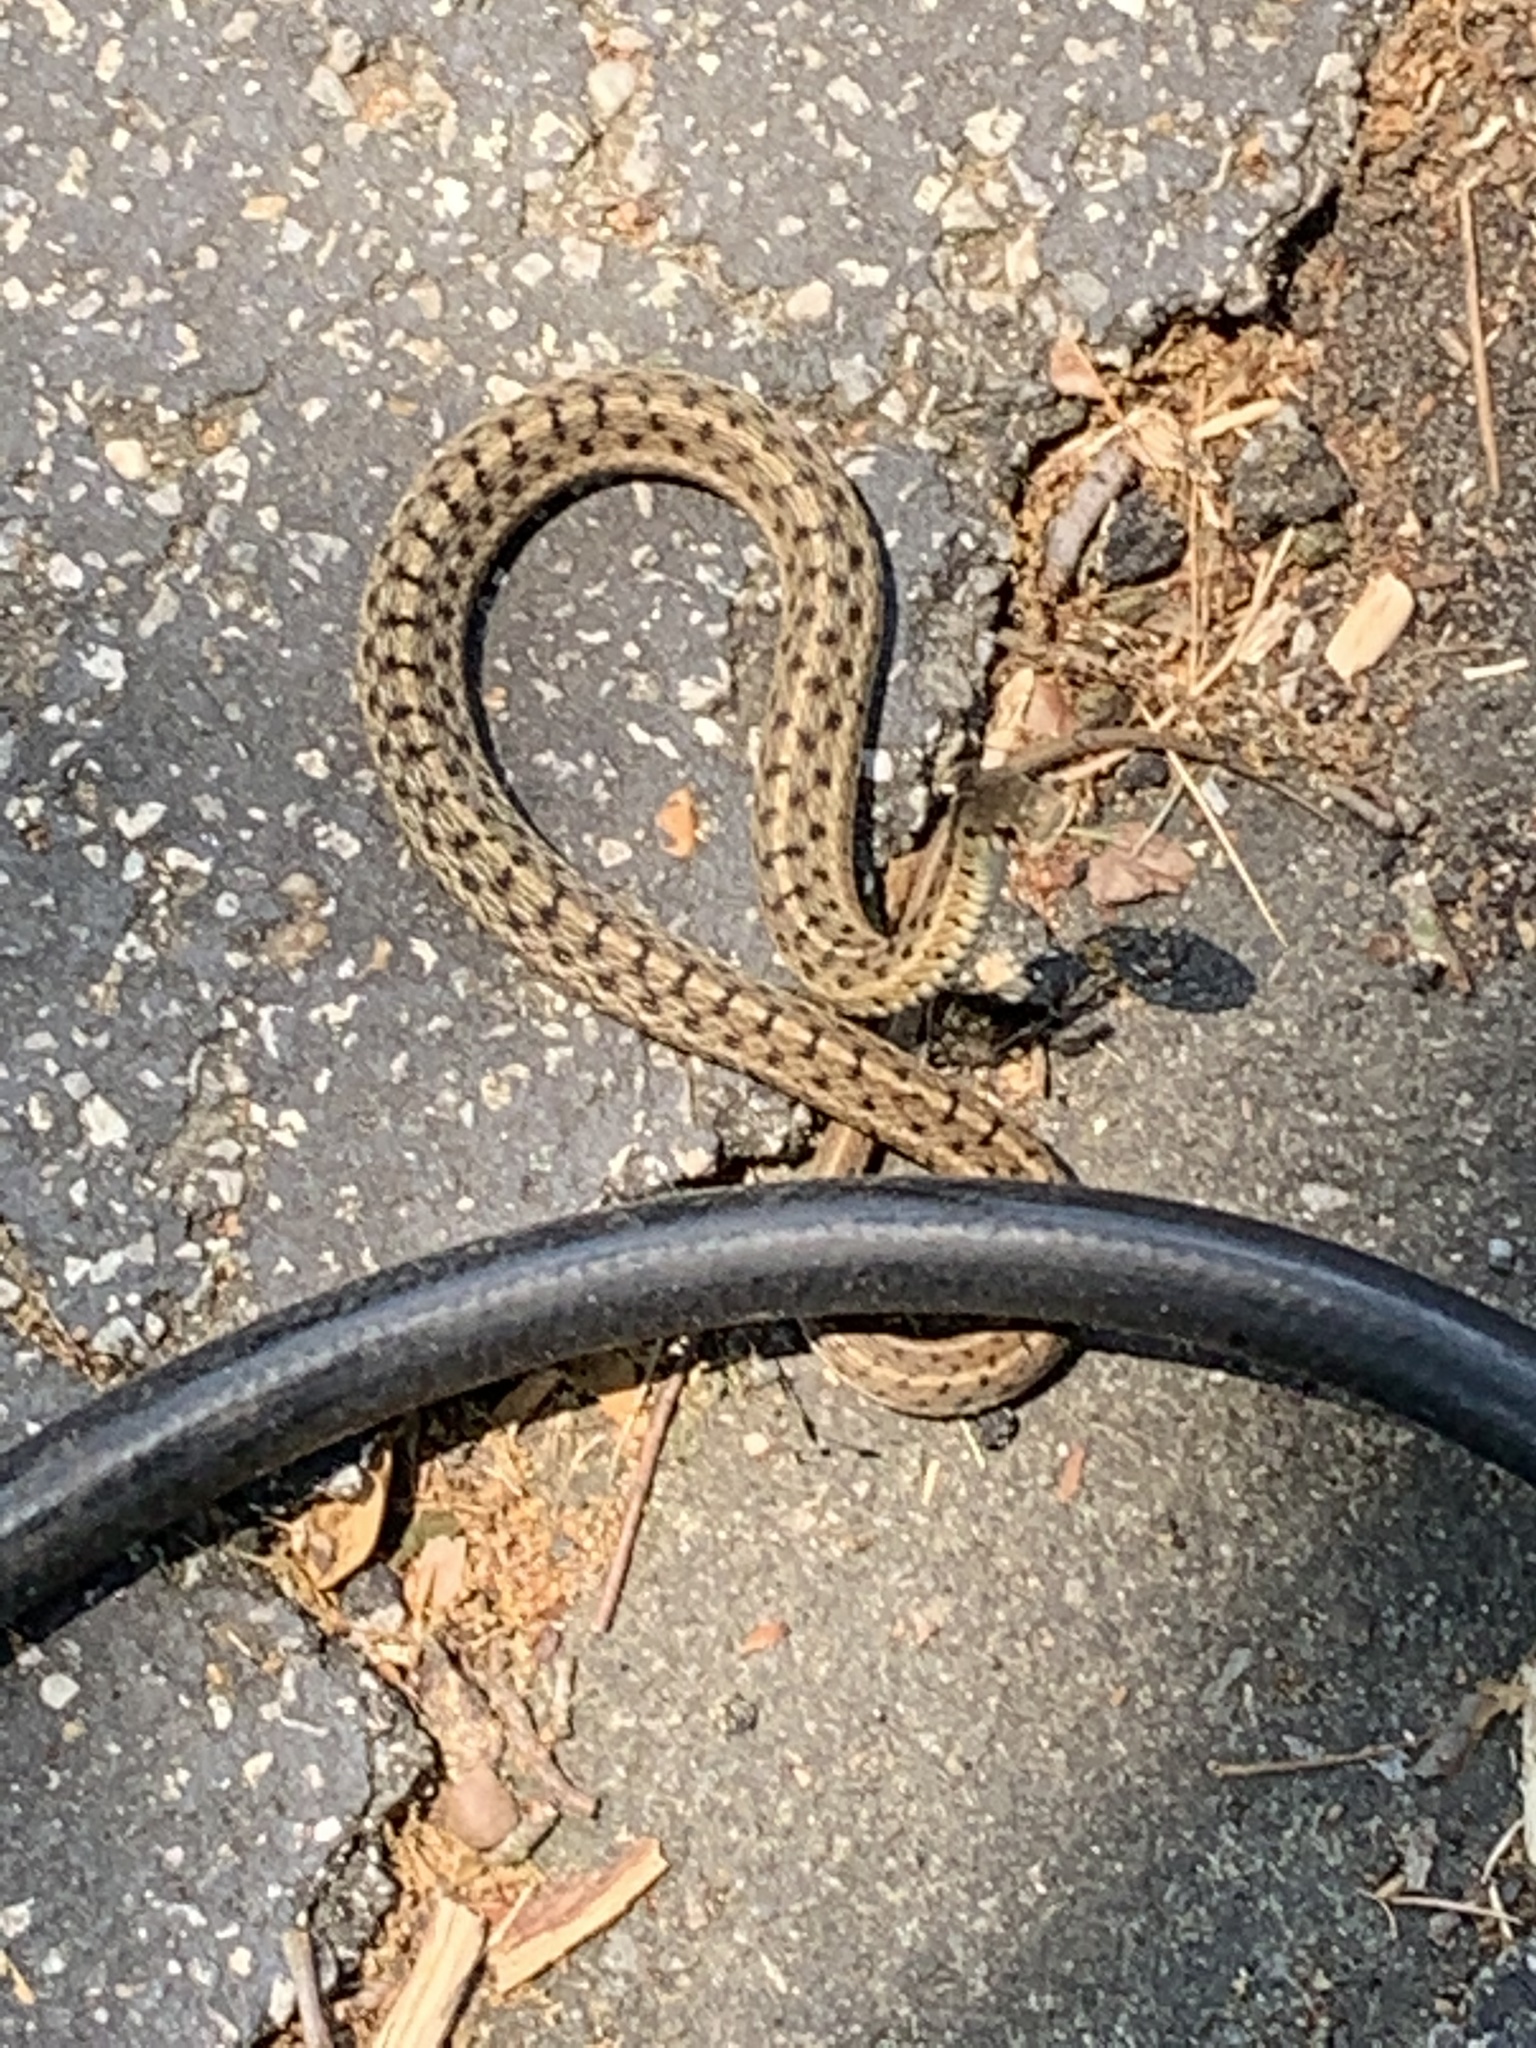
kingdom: Animalia
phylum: Chordata
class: Squamata
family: Colubridae
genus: Thamnophis
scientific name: Thamnophis sirtalis
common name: Common garter snake
